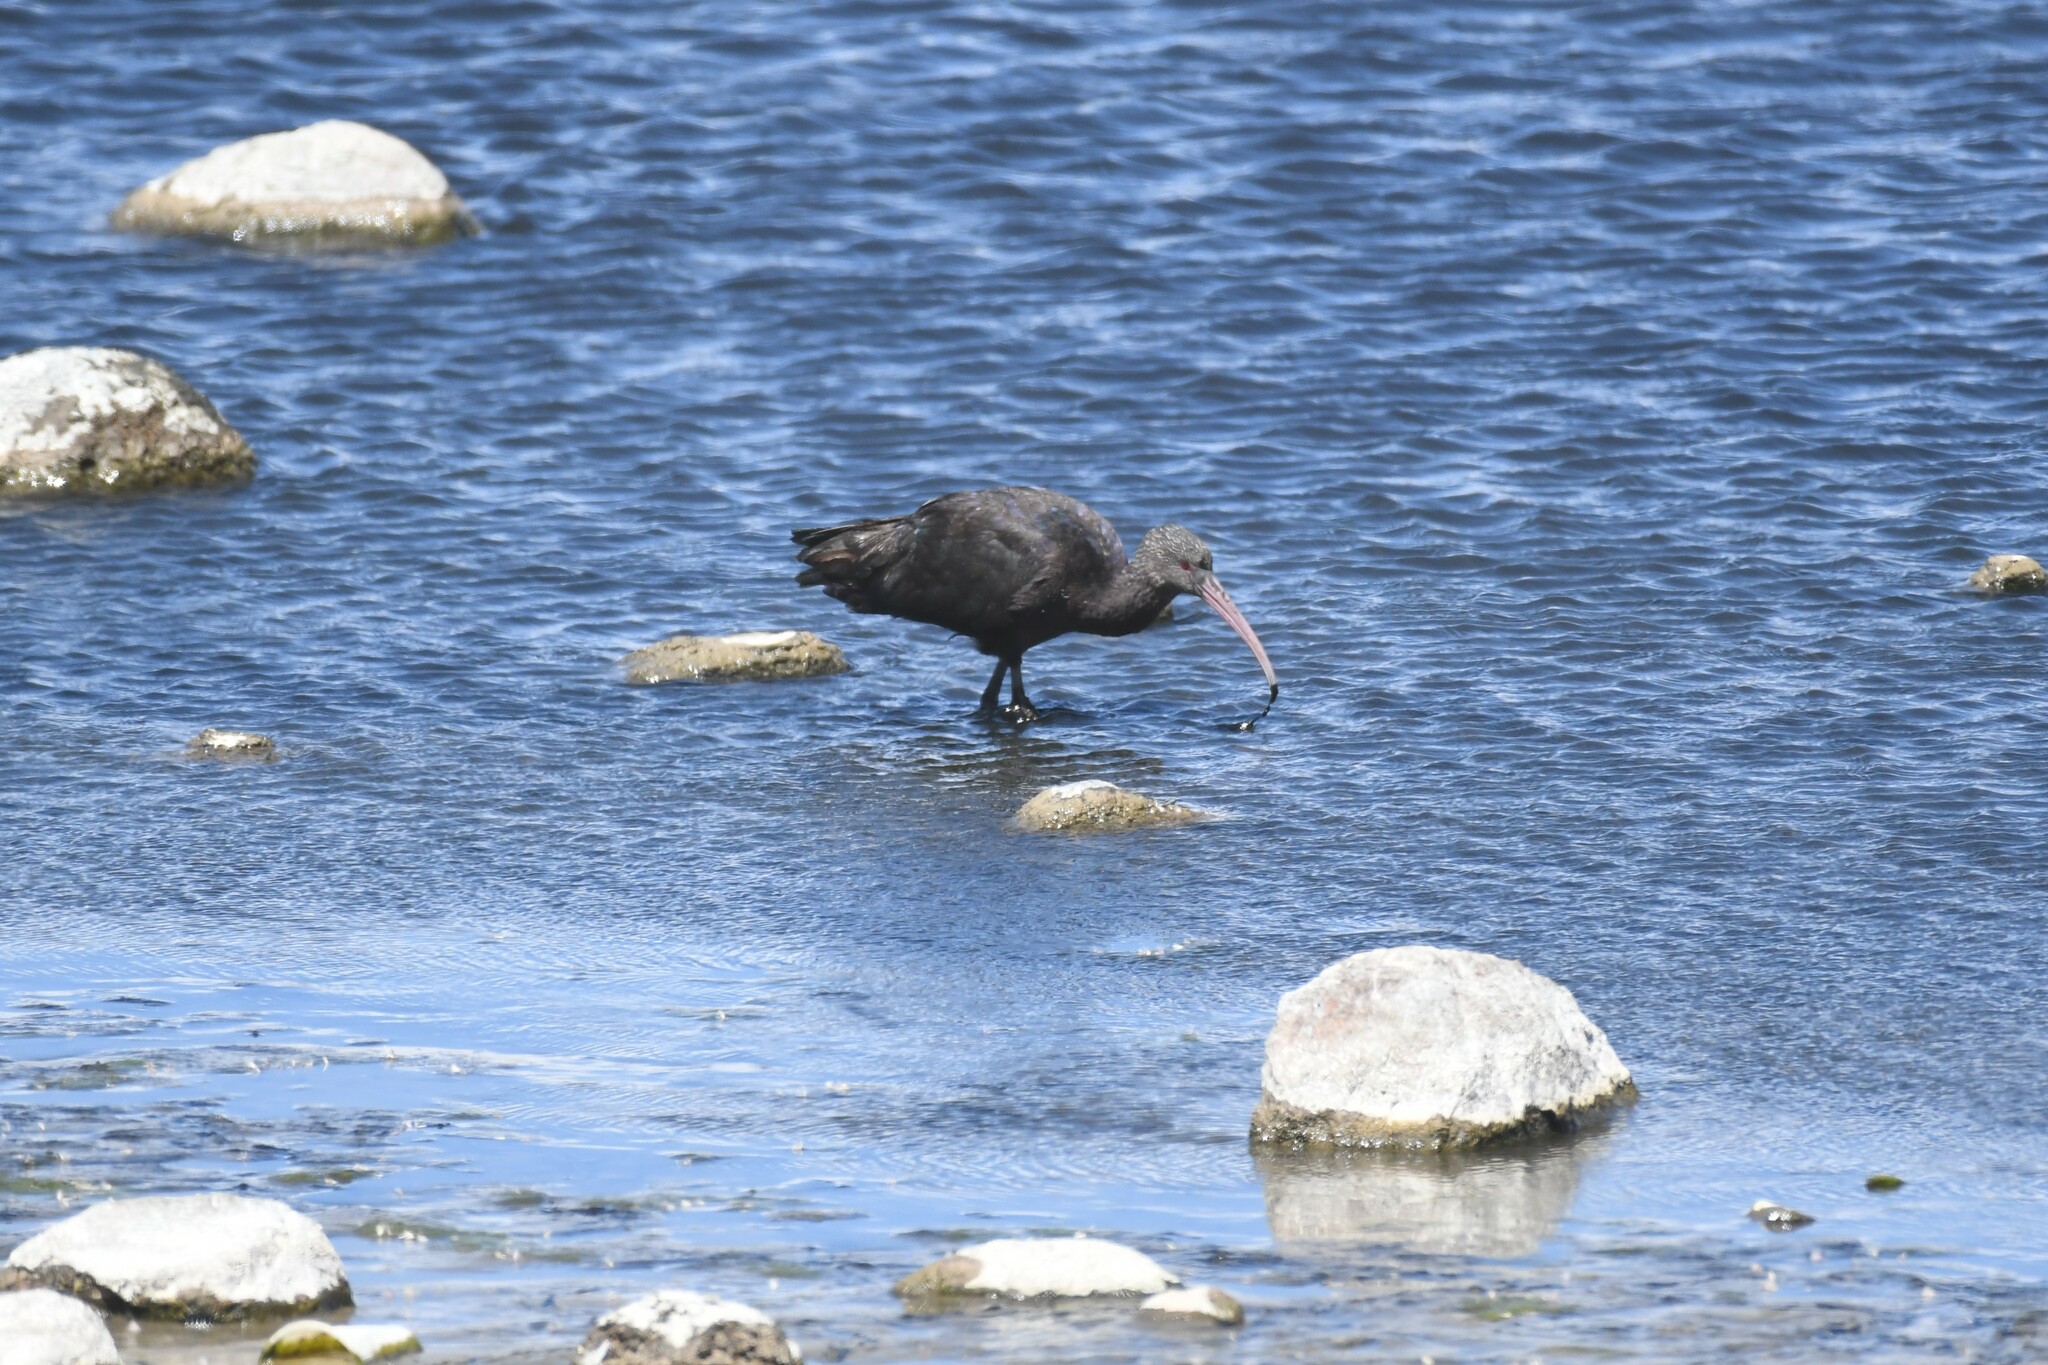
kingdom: Animalia
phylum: Chordata
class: Aves
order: Pelecaniformes
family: Threskiornithidae
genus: Plegadis
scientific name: Plegadis ridgwayi
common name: Puna ibis
